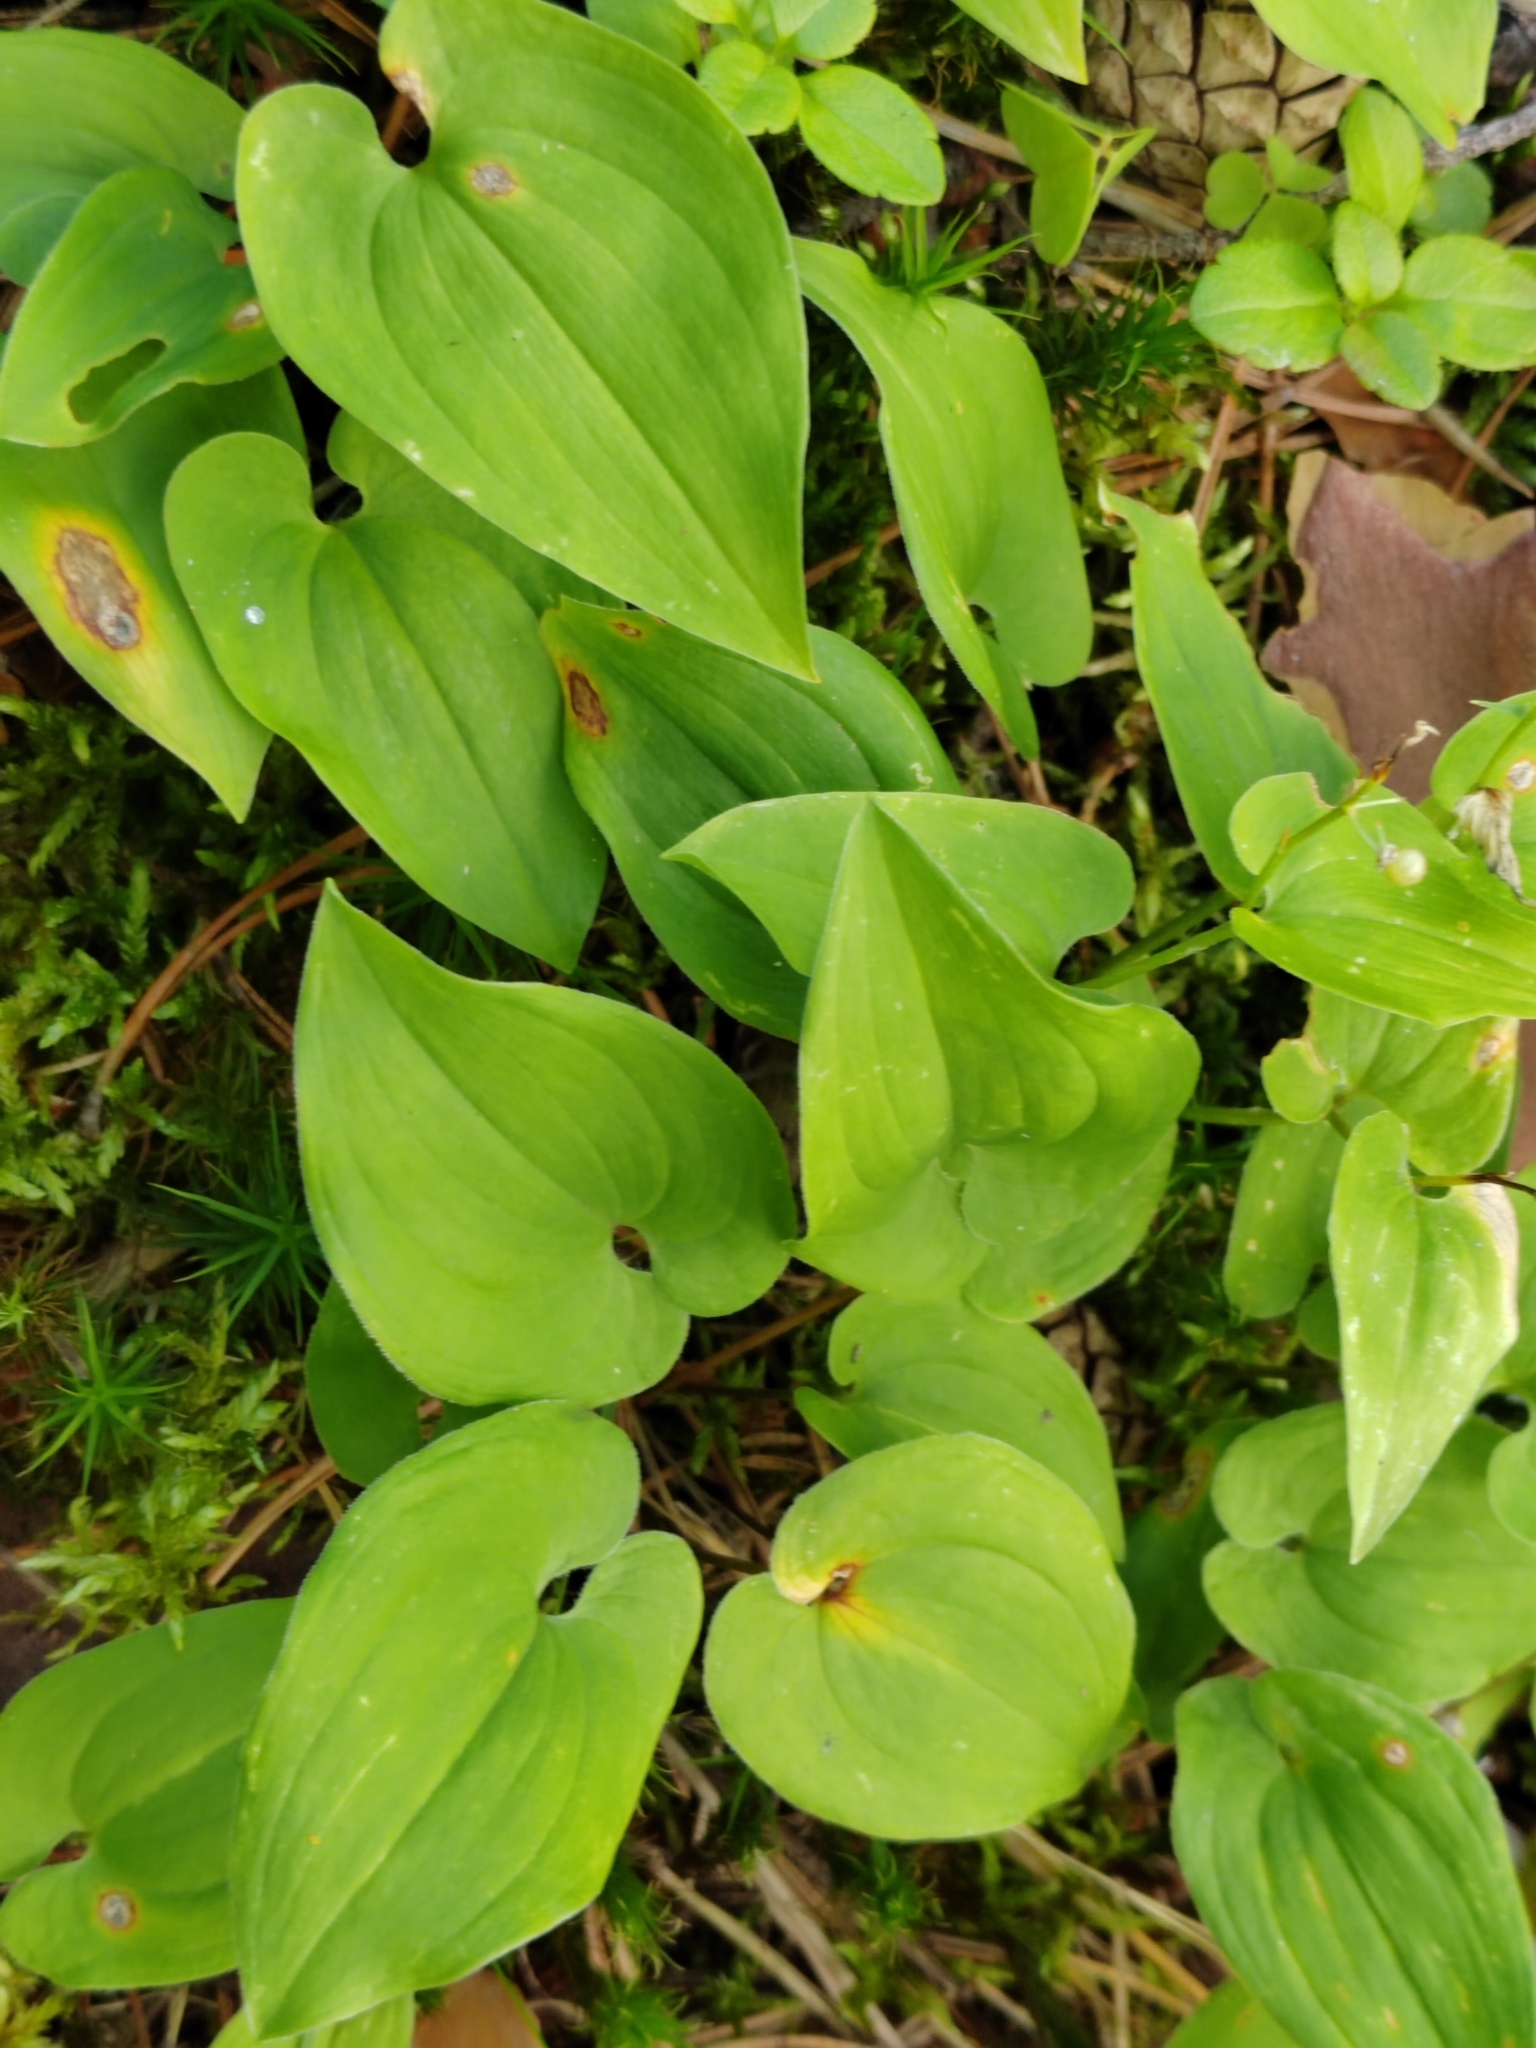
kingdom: Plantae
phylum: Tracheophyta
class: Liliopsida
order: Asparagales
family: Asparagaceae
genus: Maianthemum
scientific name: Maianthemum bifolium
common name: May lily
